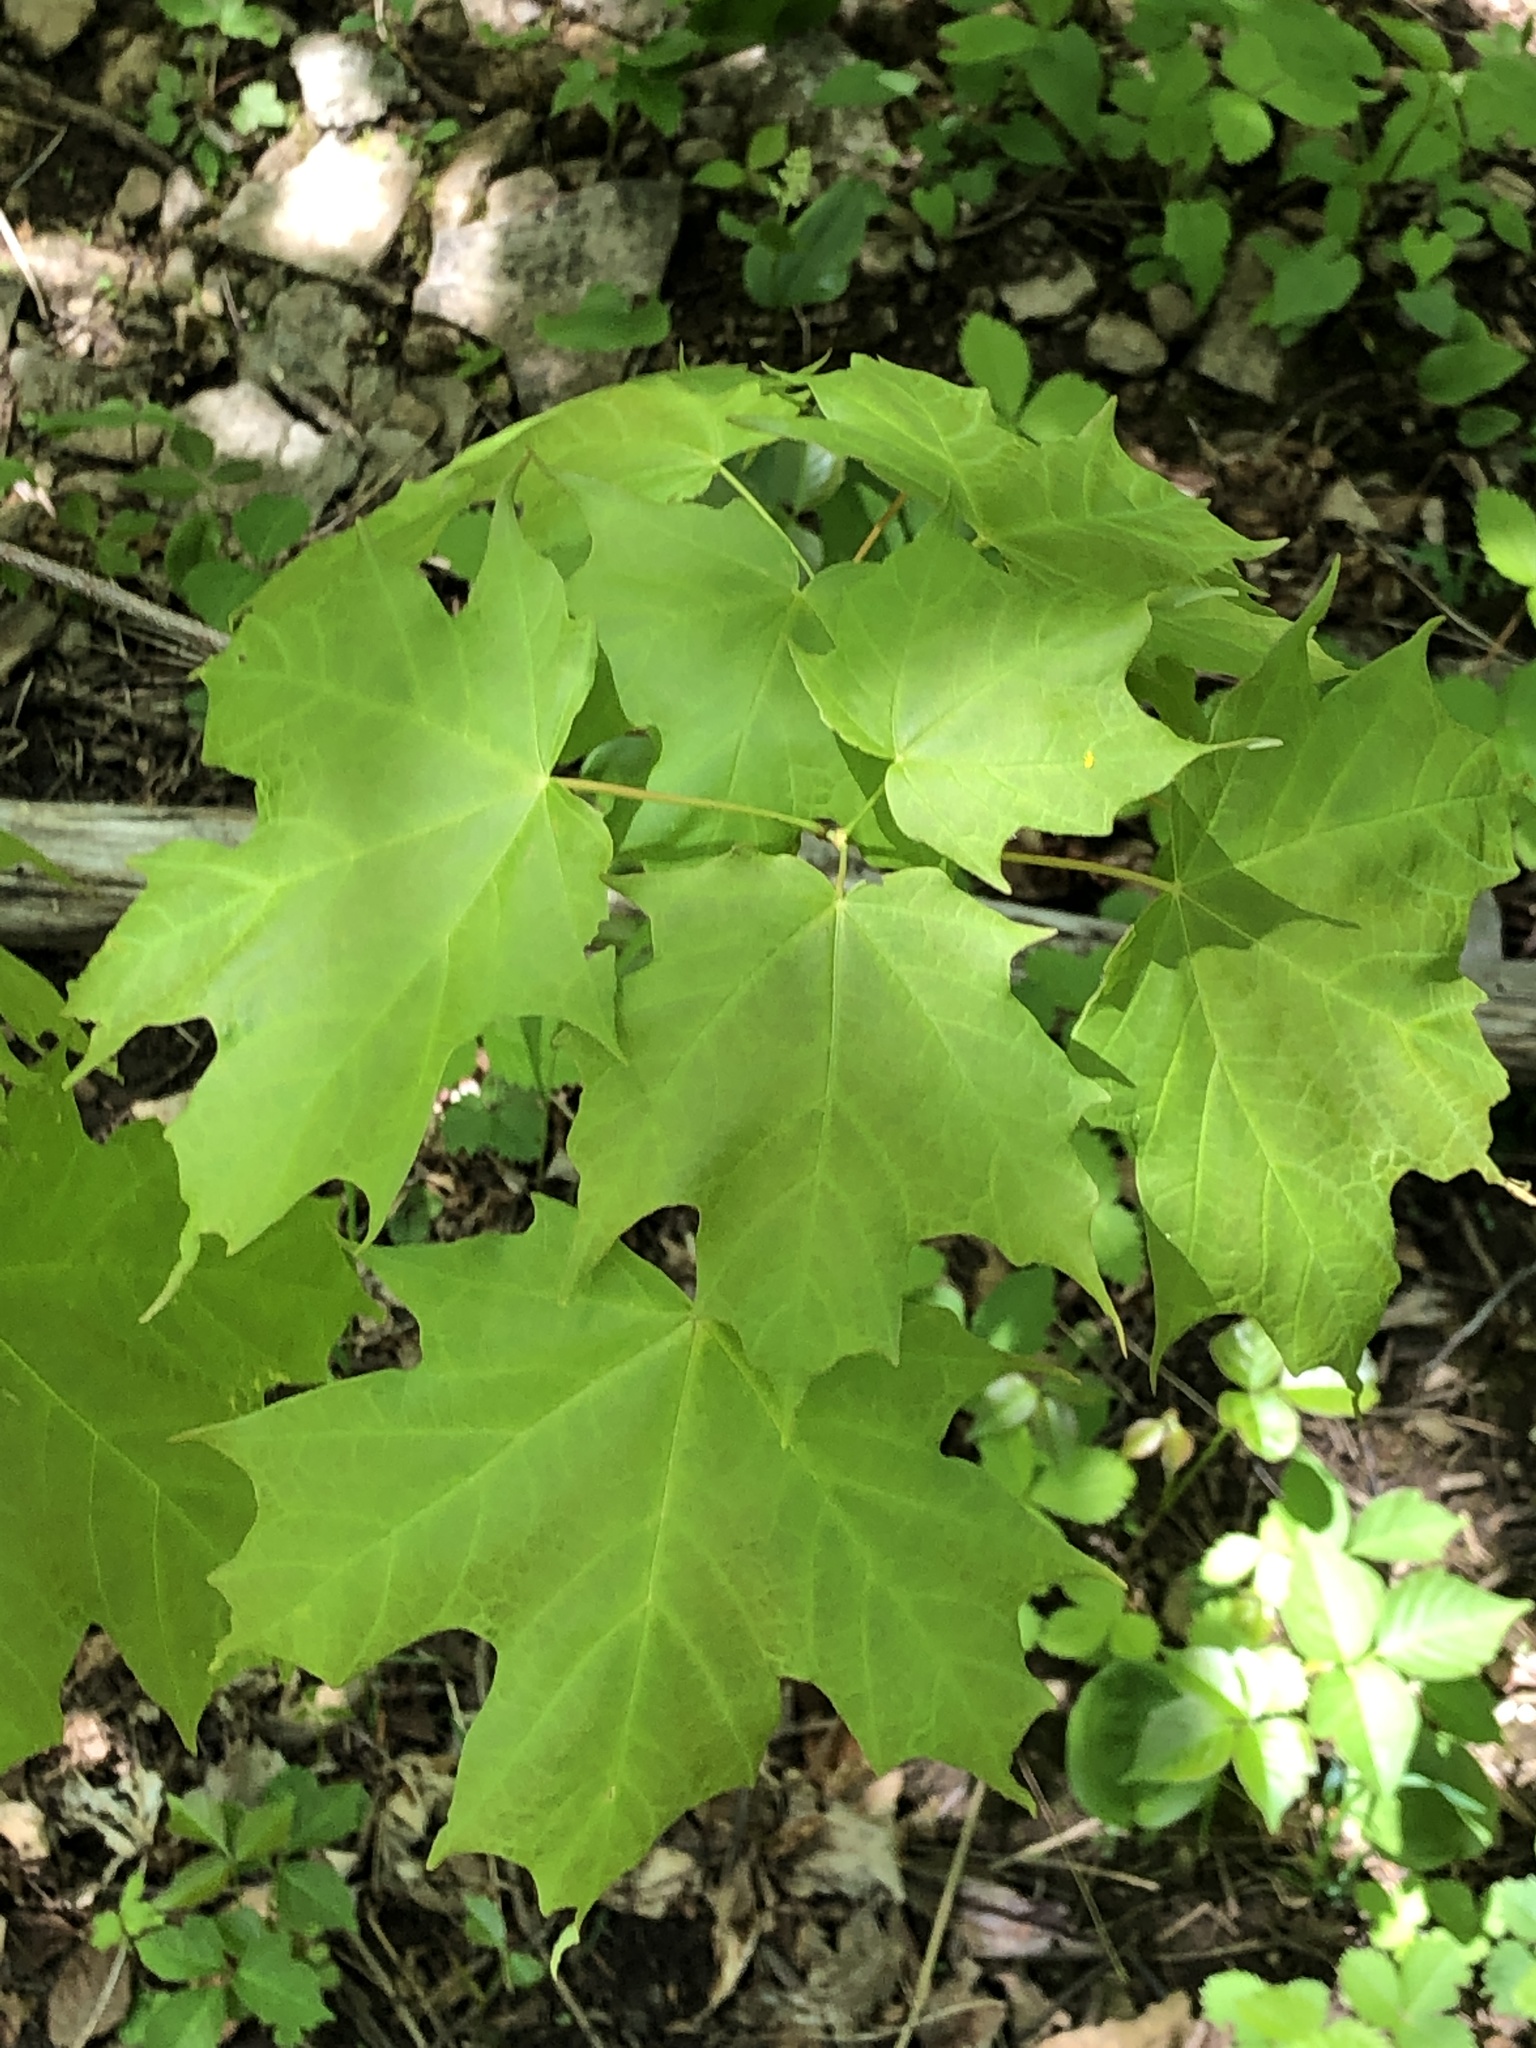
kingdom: Plantae
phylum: Tracheophyta
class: Magnoliopsida
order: Sapindales
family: Sapindaceae
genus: Acer
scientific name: Acer saccharum
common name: Sugar maple
